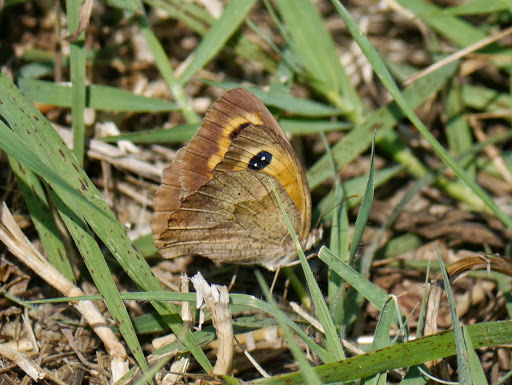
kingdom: Animalia
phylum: Arthropoda
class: Insecta
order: Lepidoptera
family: Nymphalidae
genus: Maniola
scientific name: Maniola jurtina
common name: Meadow brown
